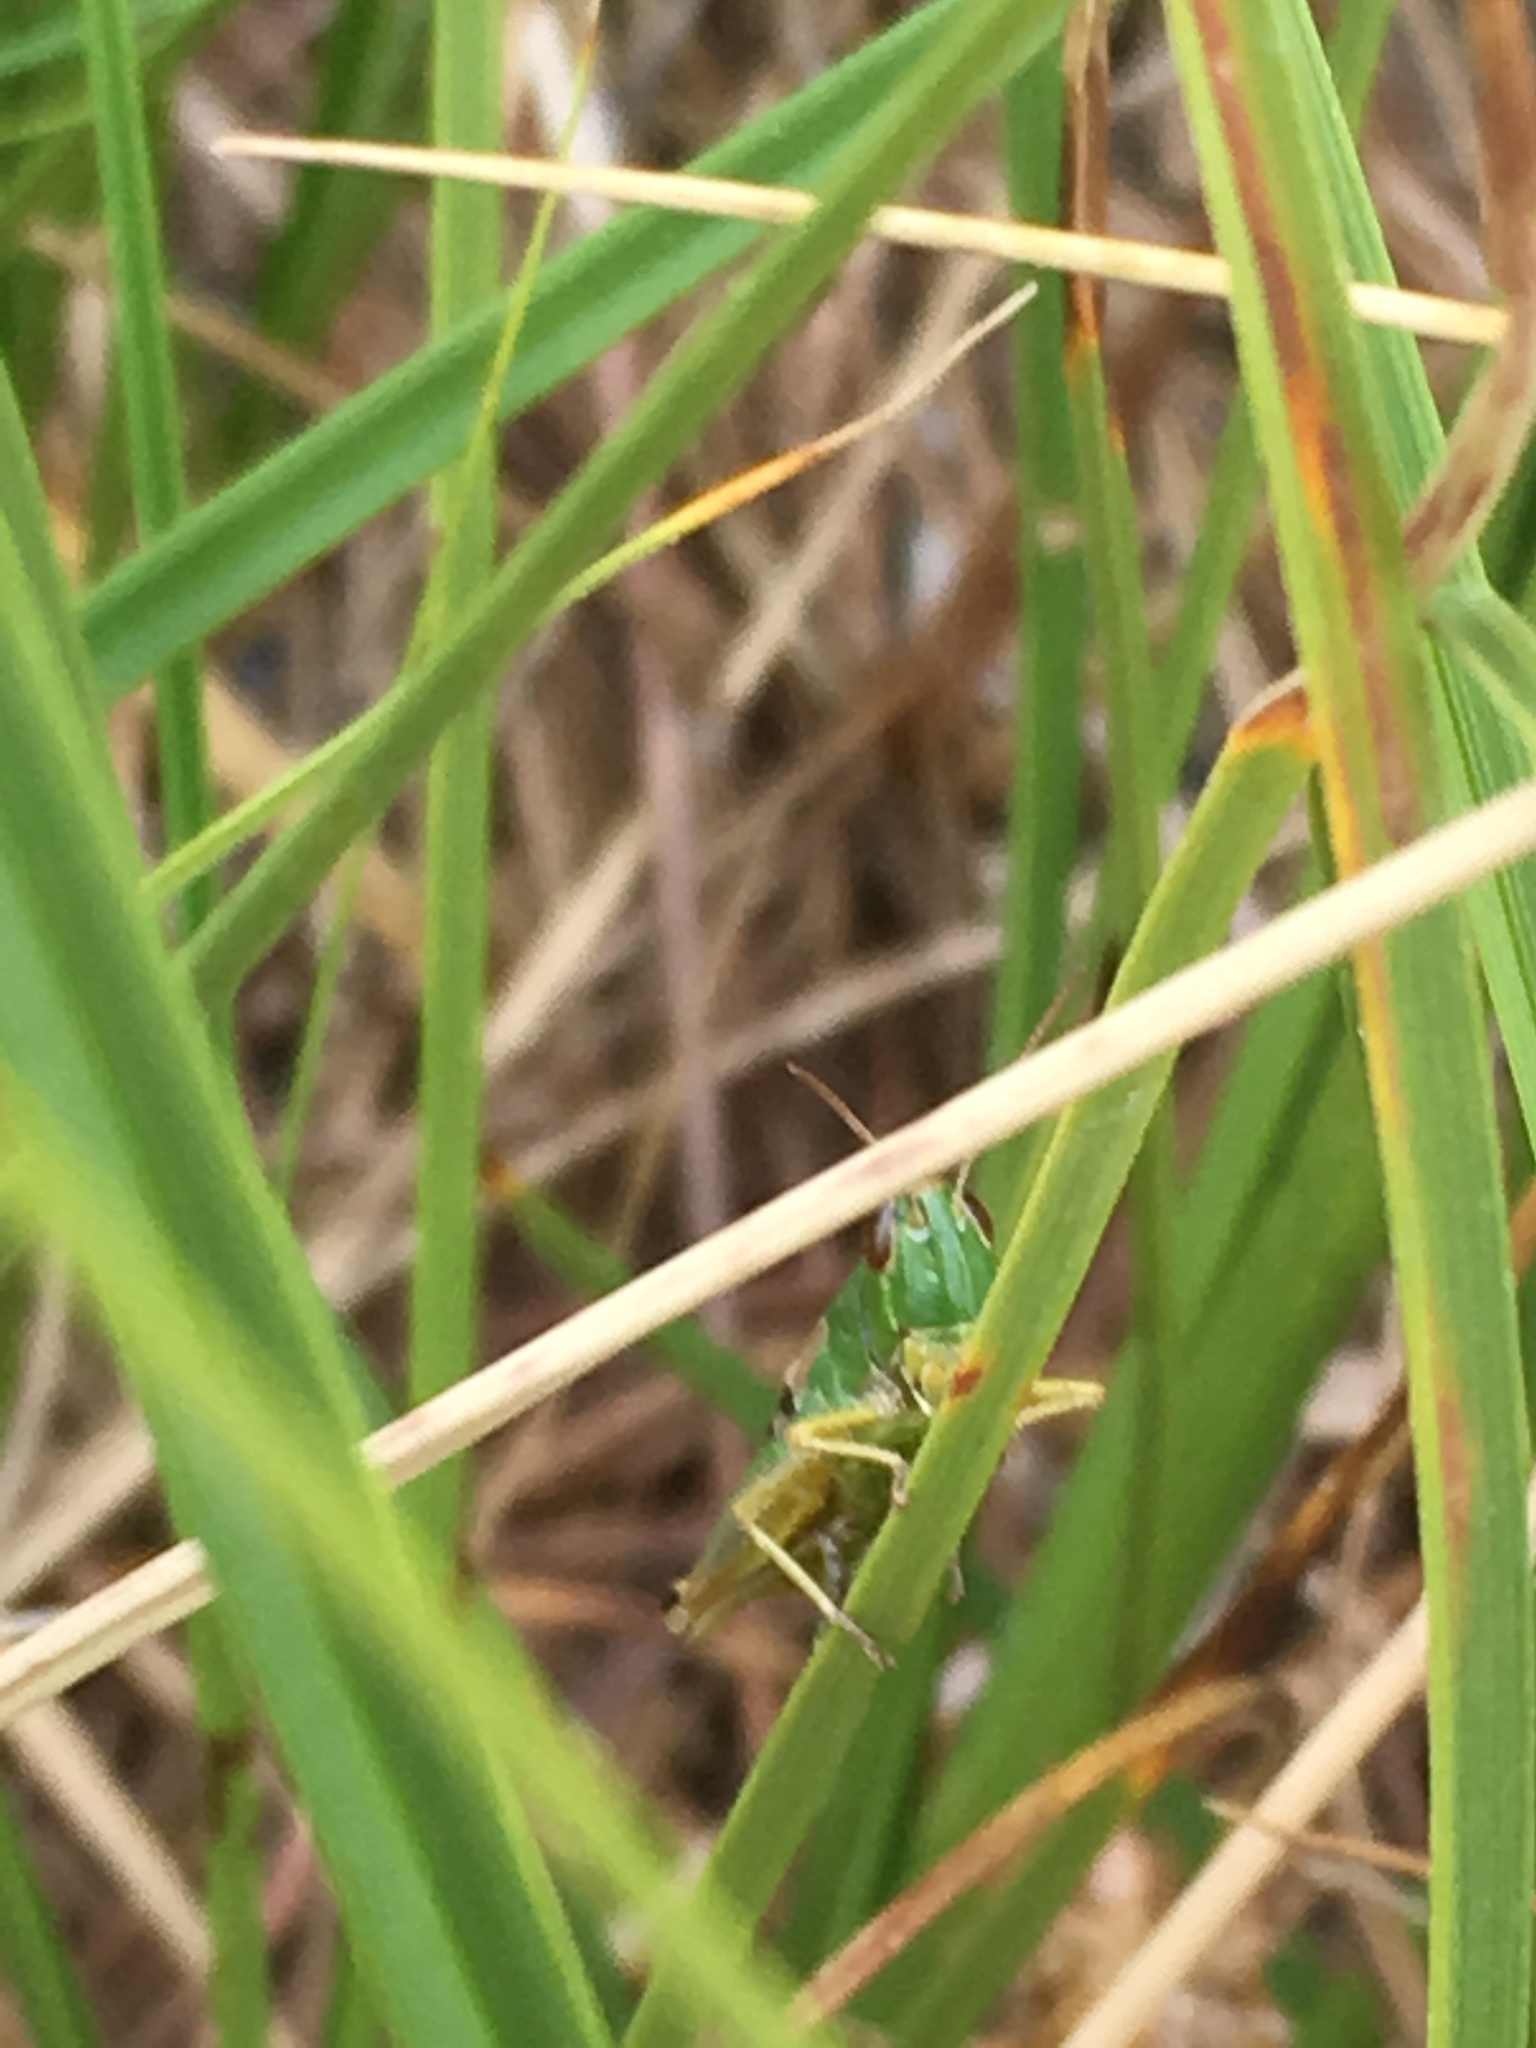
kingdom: Animalia
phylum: Arthropoda
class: Insecta
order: Orthoptera
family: Acrididae
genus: Pseudochorthippus
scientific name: Pseudochorthippus parallelus
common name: Meadow grasshopper
